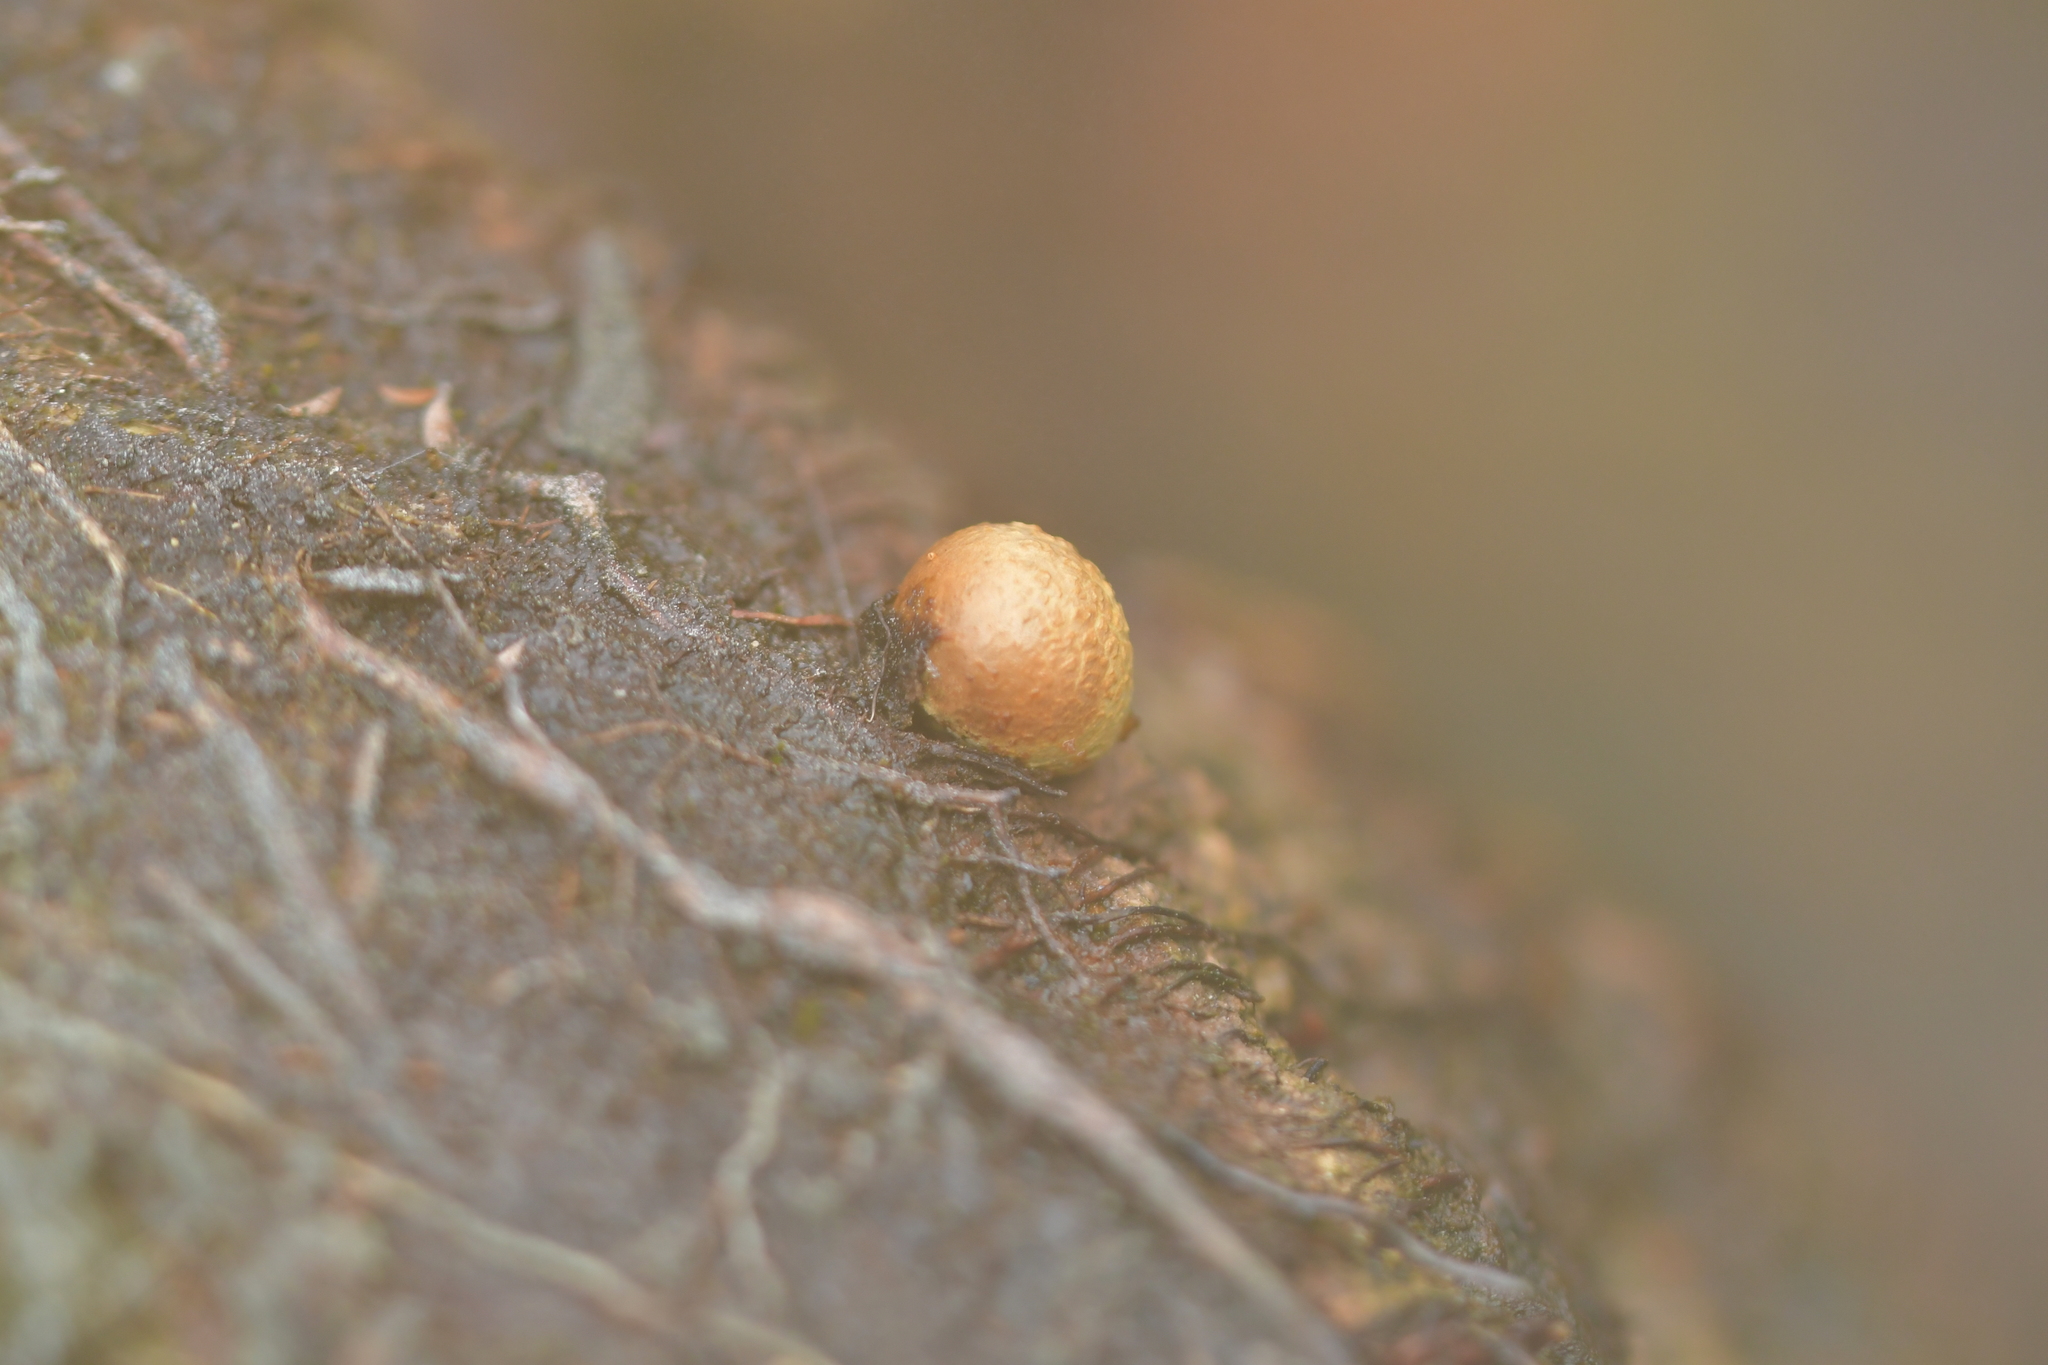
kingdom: Fungi
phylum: Basidiomycota
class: Agaricomycetes
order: Boletales
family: Sclerodermataceae
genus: Pisolithus
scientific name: Pisolithus thermaeus
